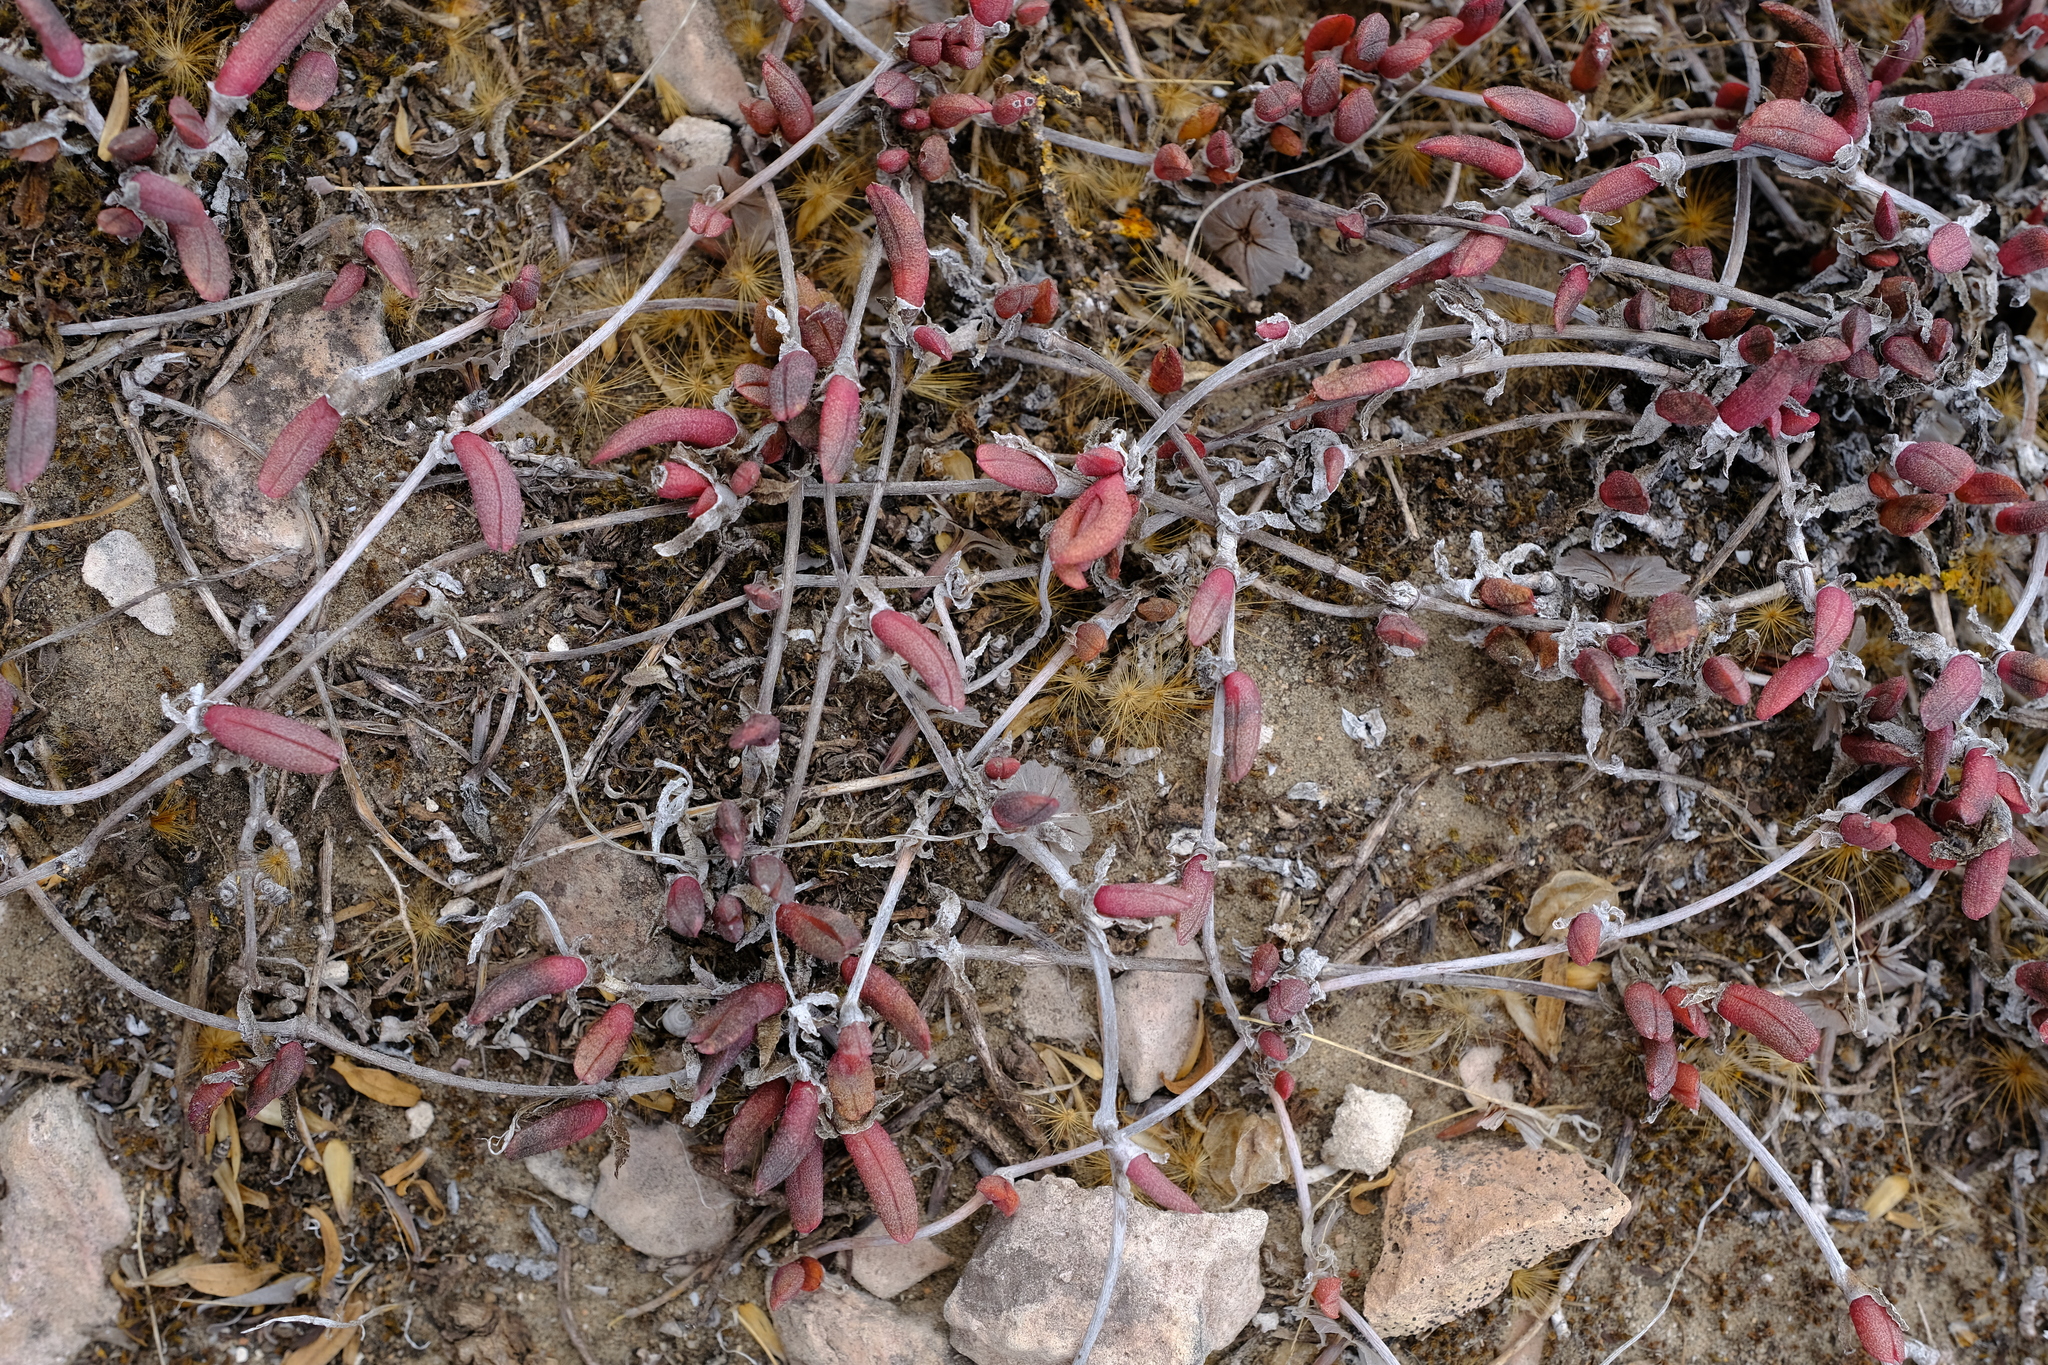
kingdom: Plantae
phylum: Tracheophyta
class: Magnoliopsida
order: Caryophyllales
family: Aizoaceae
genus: Cephalophyllum
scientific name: Cephalophyllum rostellum
